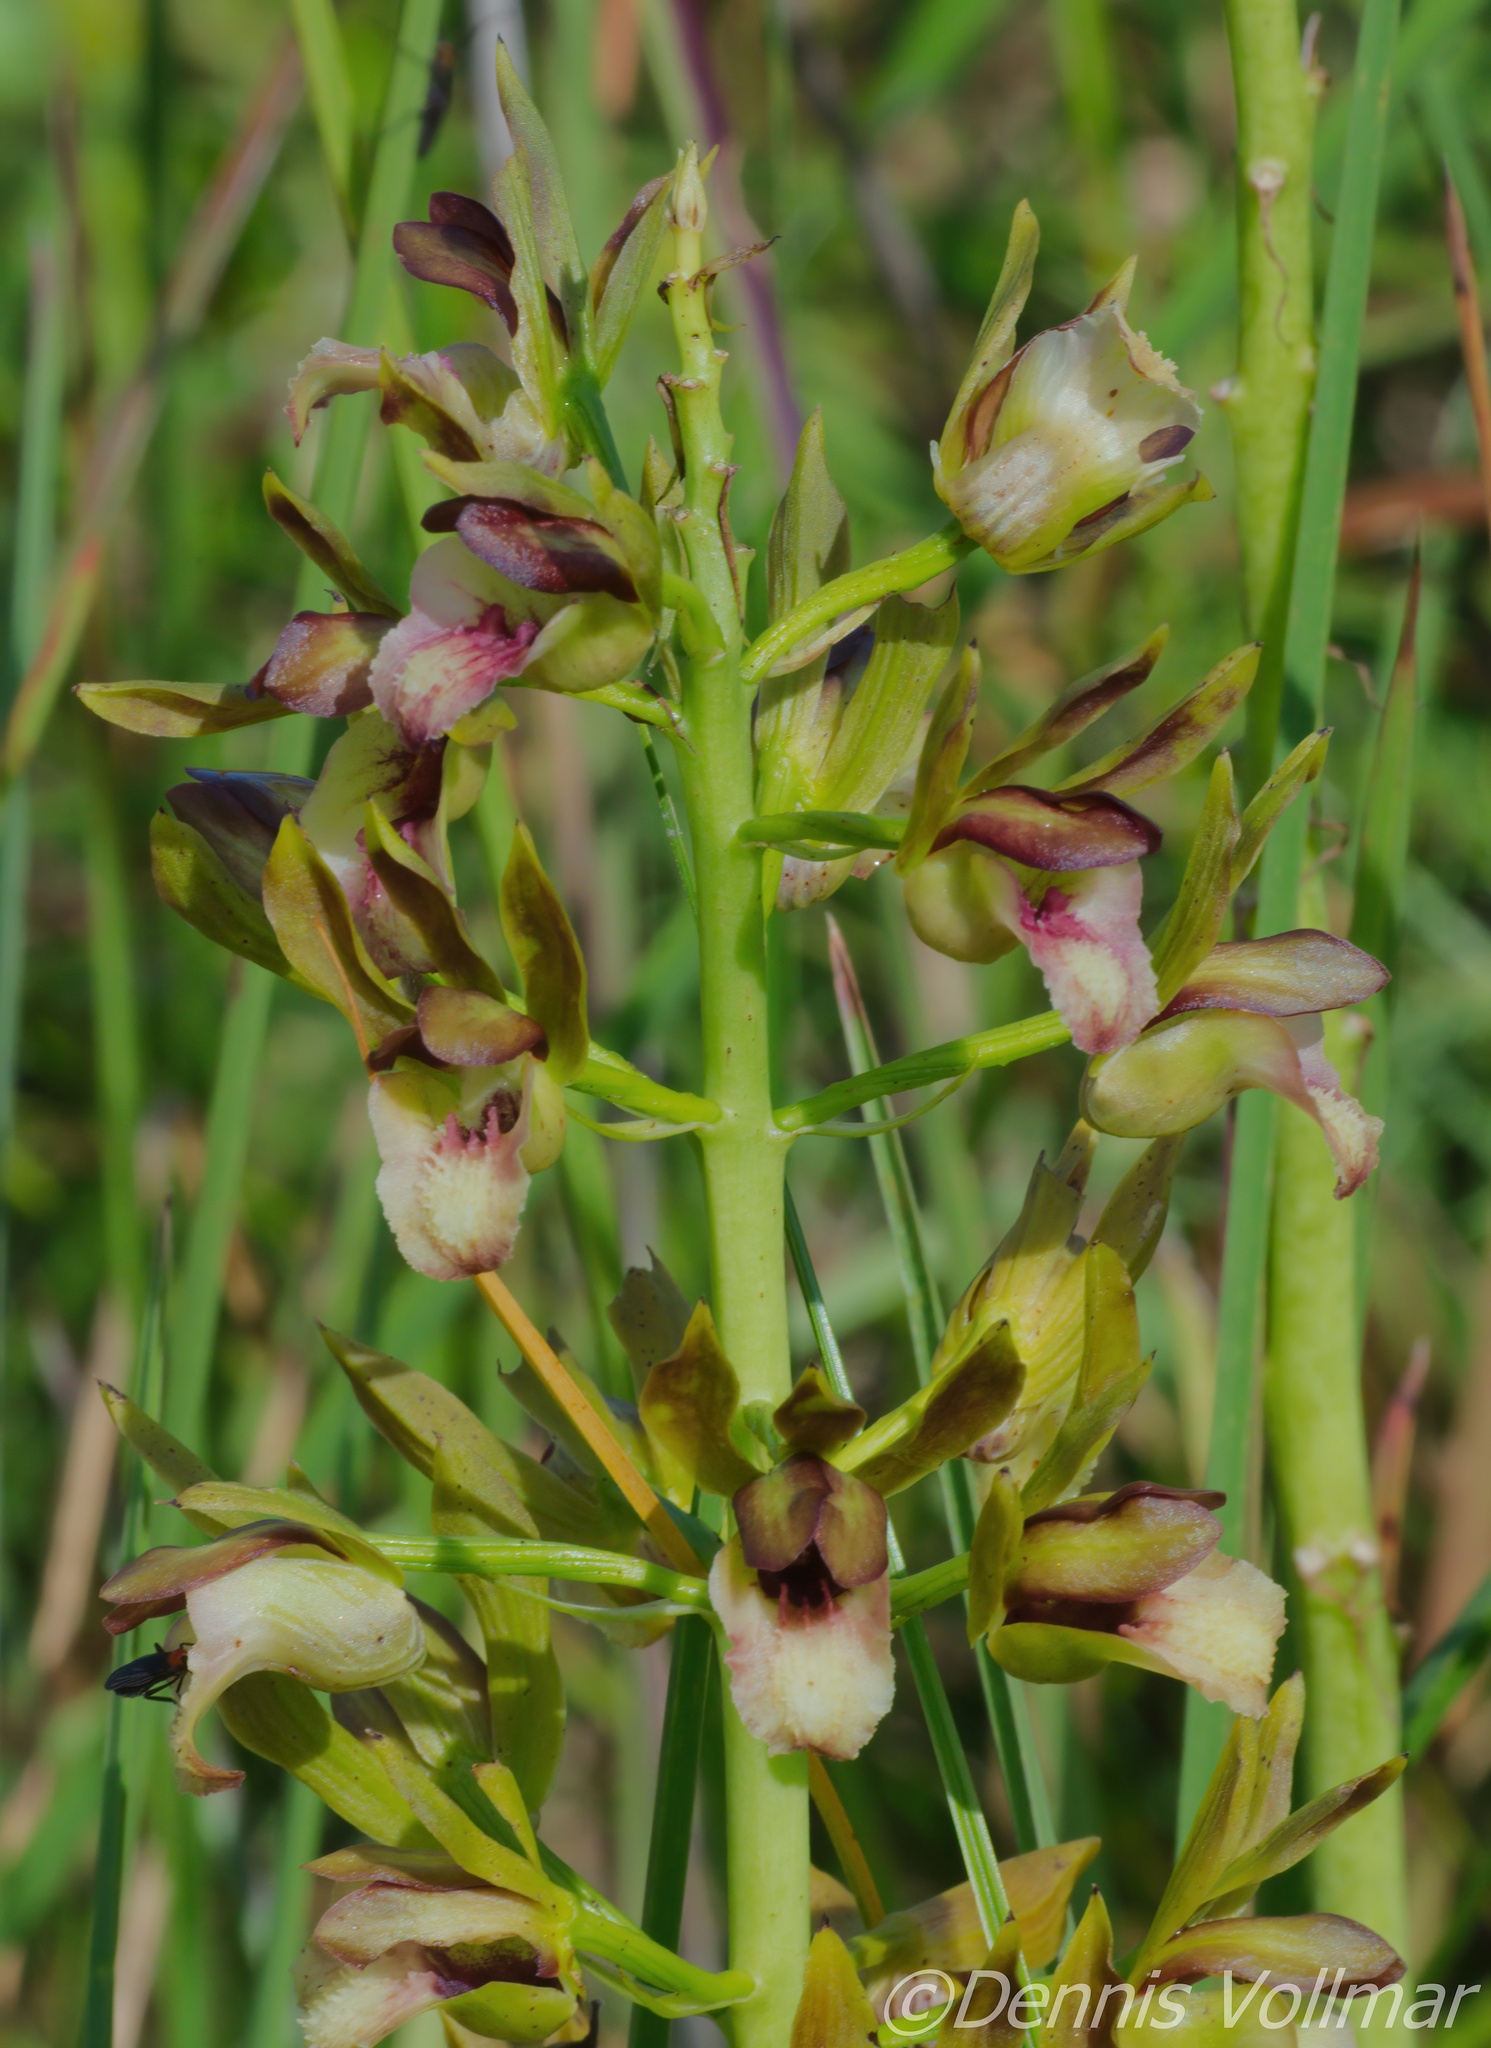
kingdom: Plantae
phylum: Tracheophyta
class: Liliopsida
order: Asparagales
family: Orchidaceae
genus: Eulophia
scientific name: Eulophia alta
